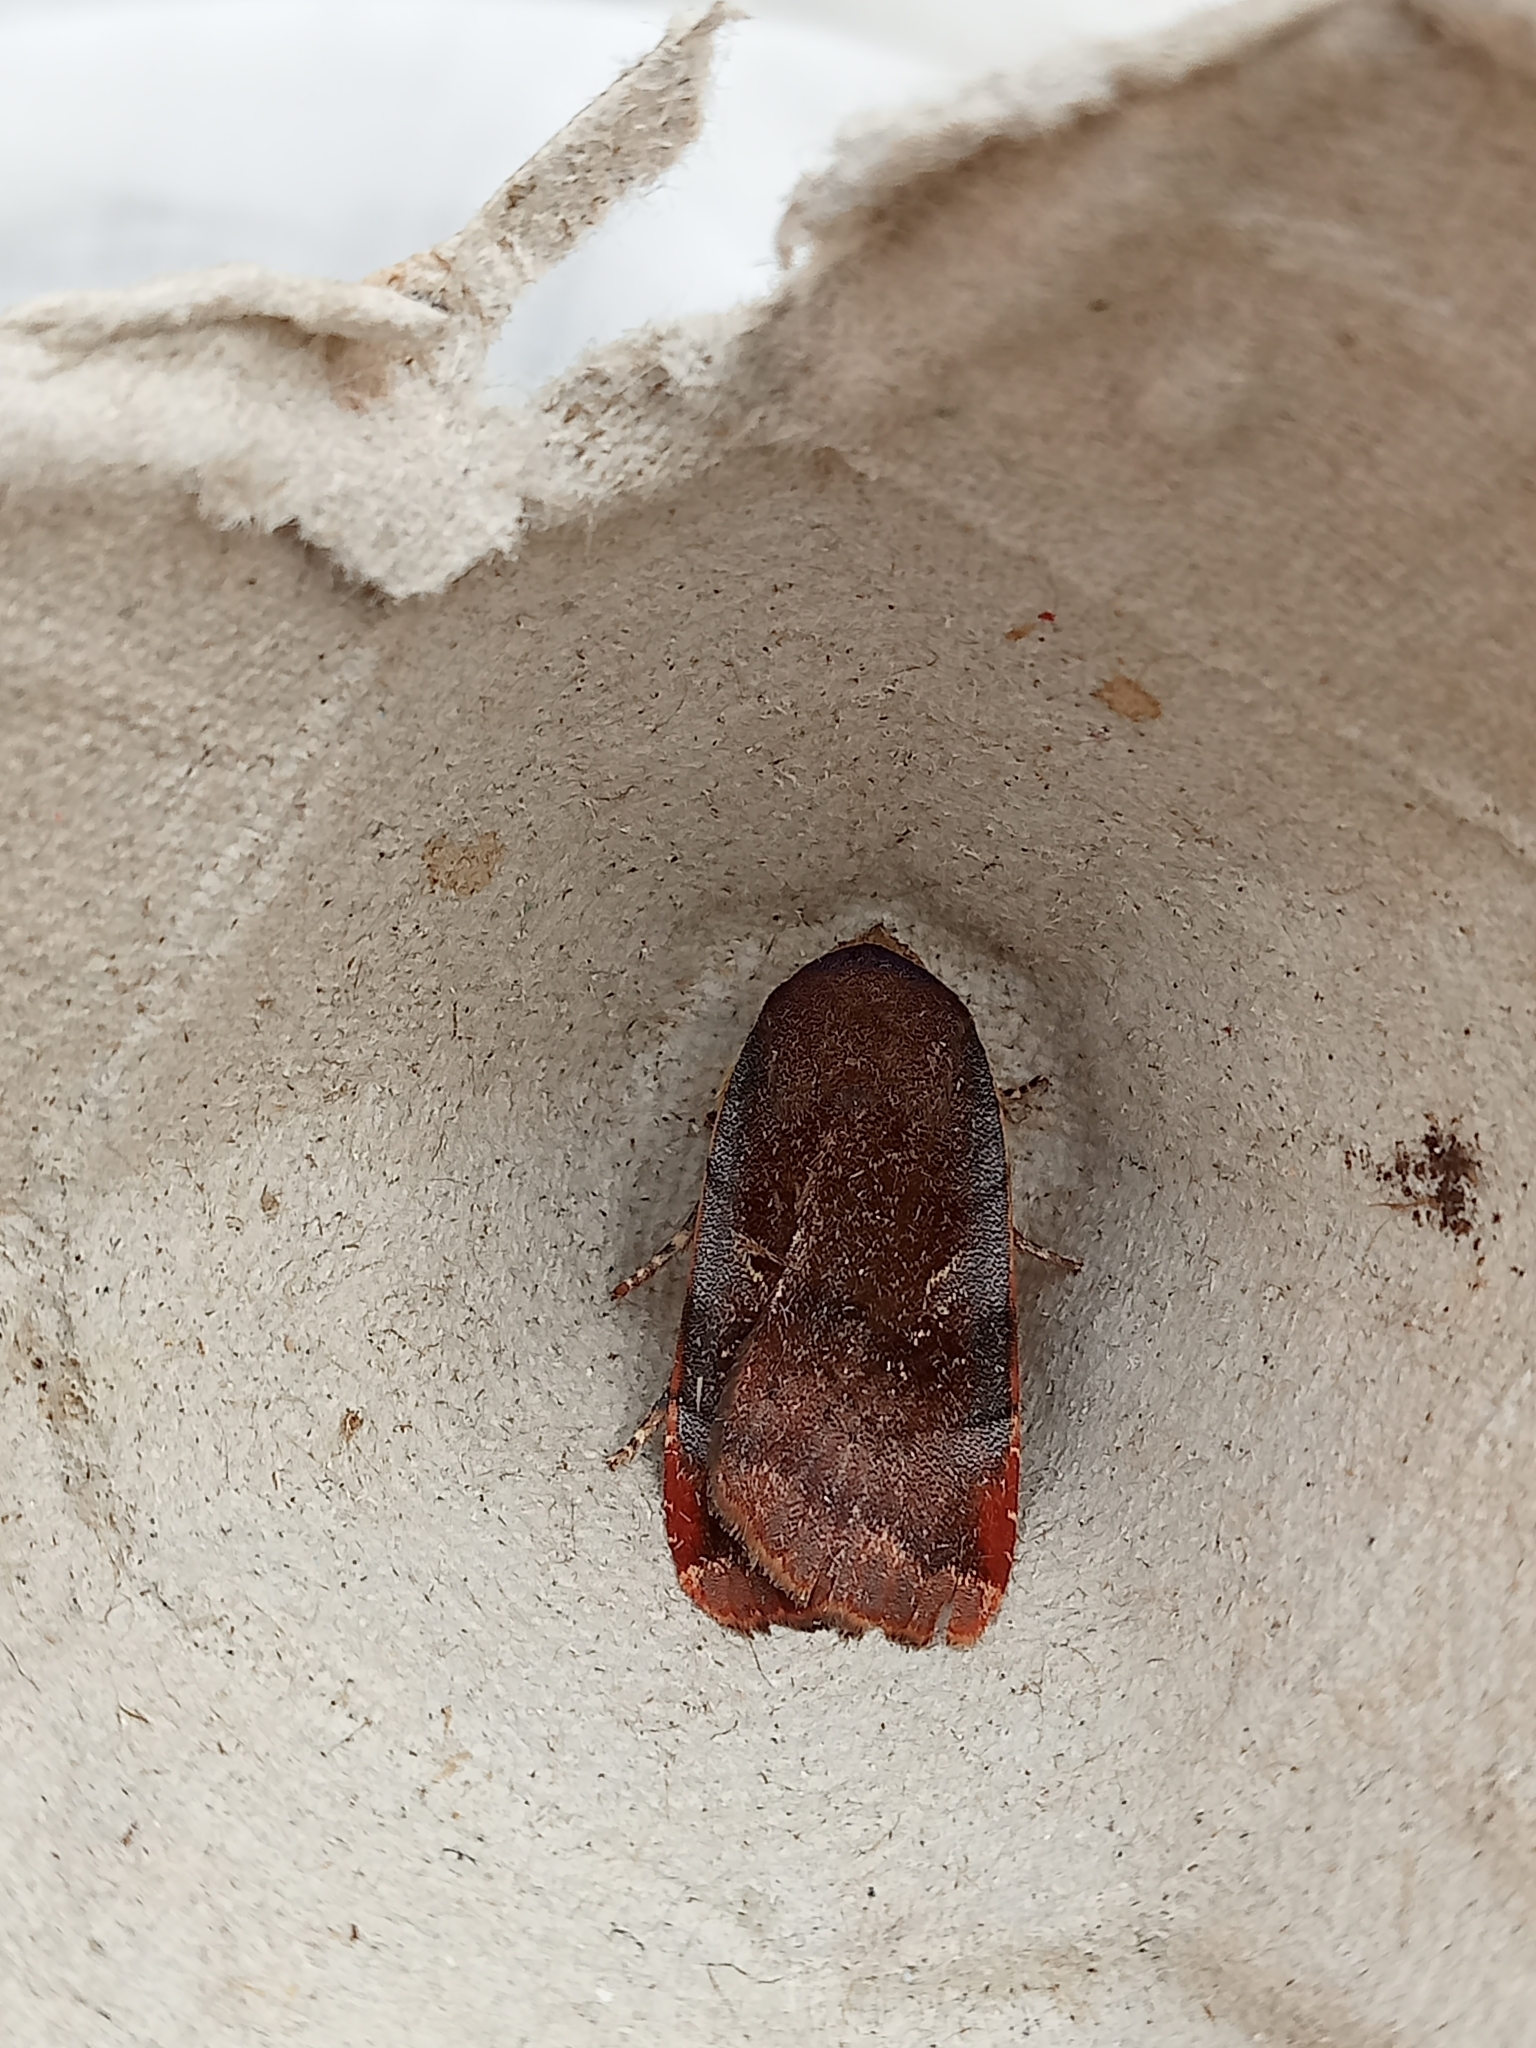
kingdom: Animalia
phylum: Arthropoda
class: Insecta
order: Lepidoptera
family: Noctuidae
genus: Noctua
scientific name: Noctua janthe
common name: Lesser broad-bordered yellow underwing
